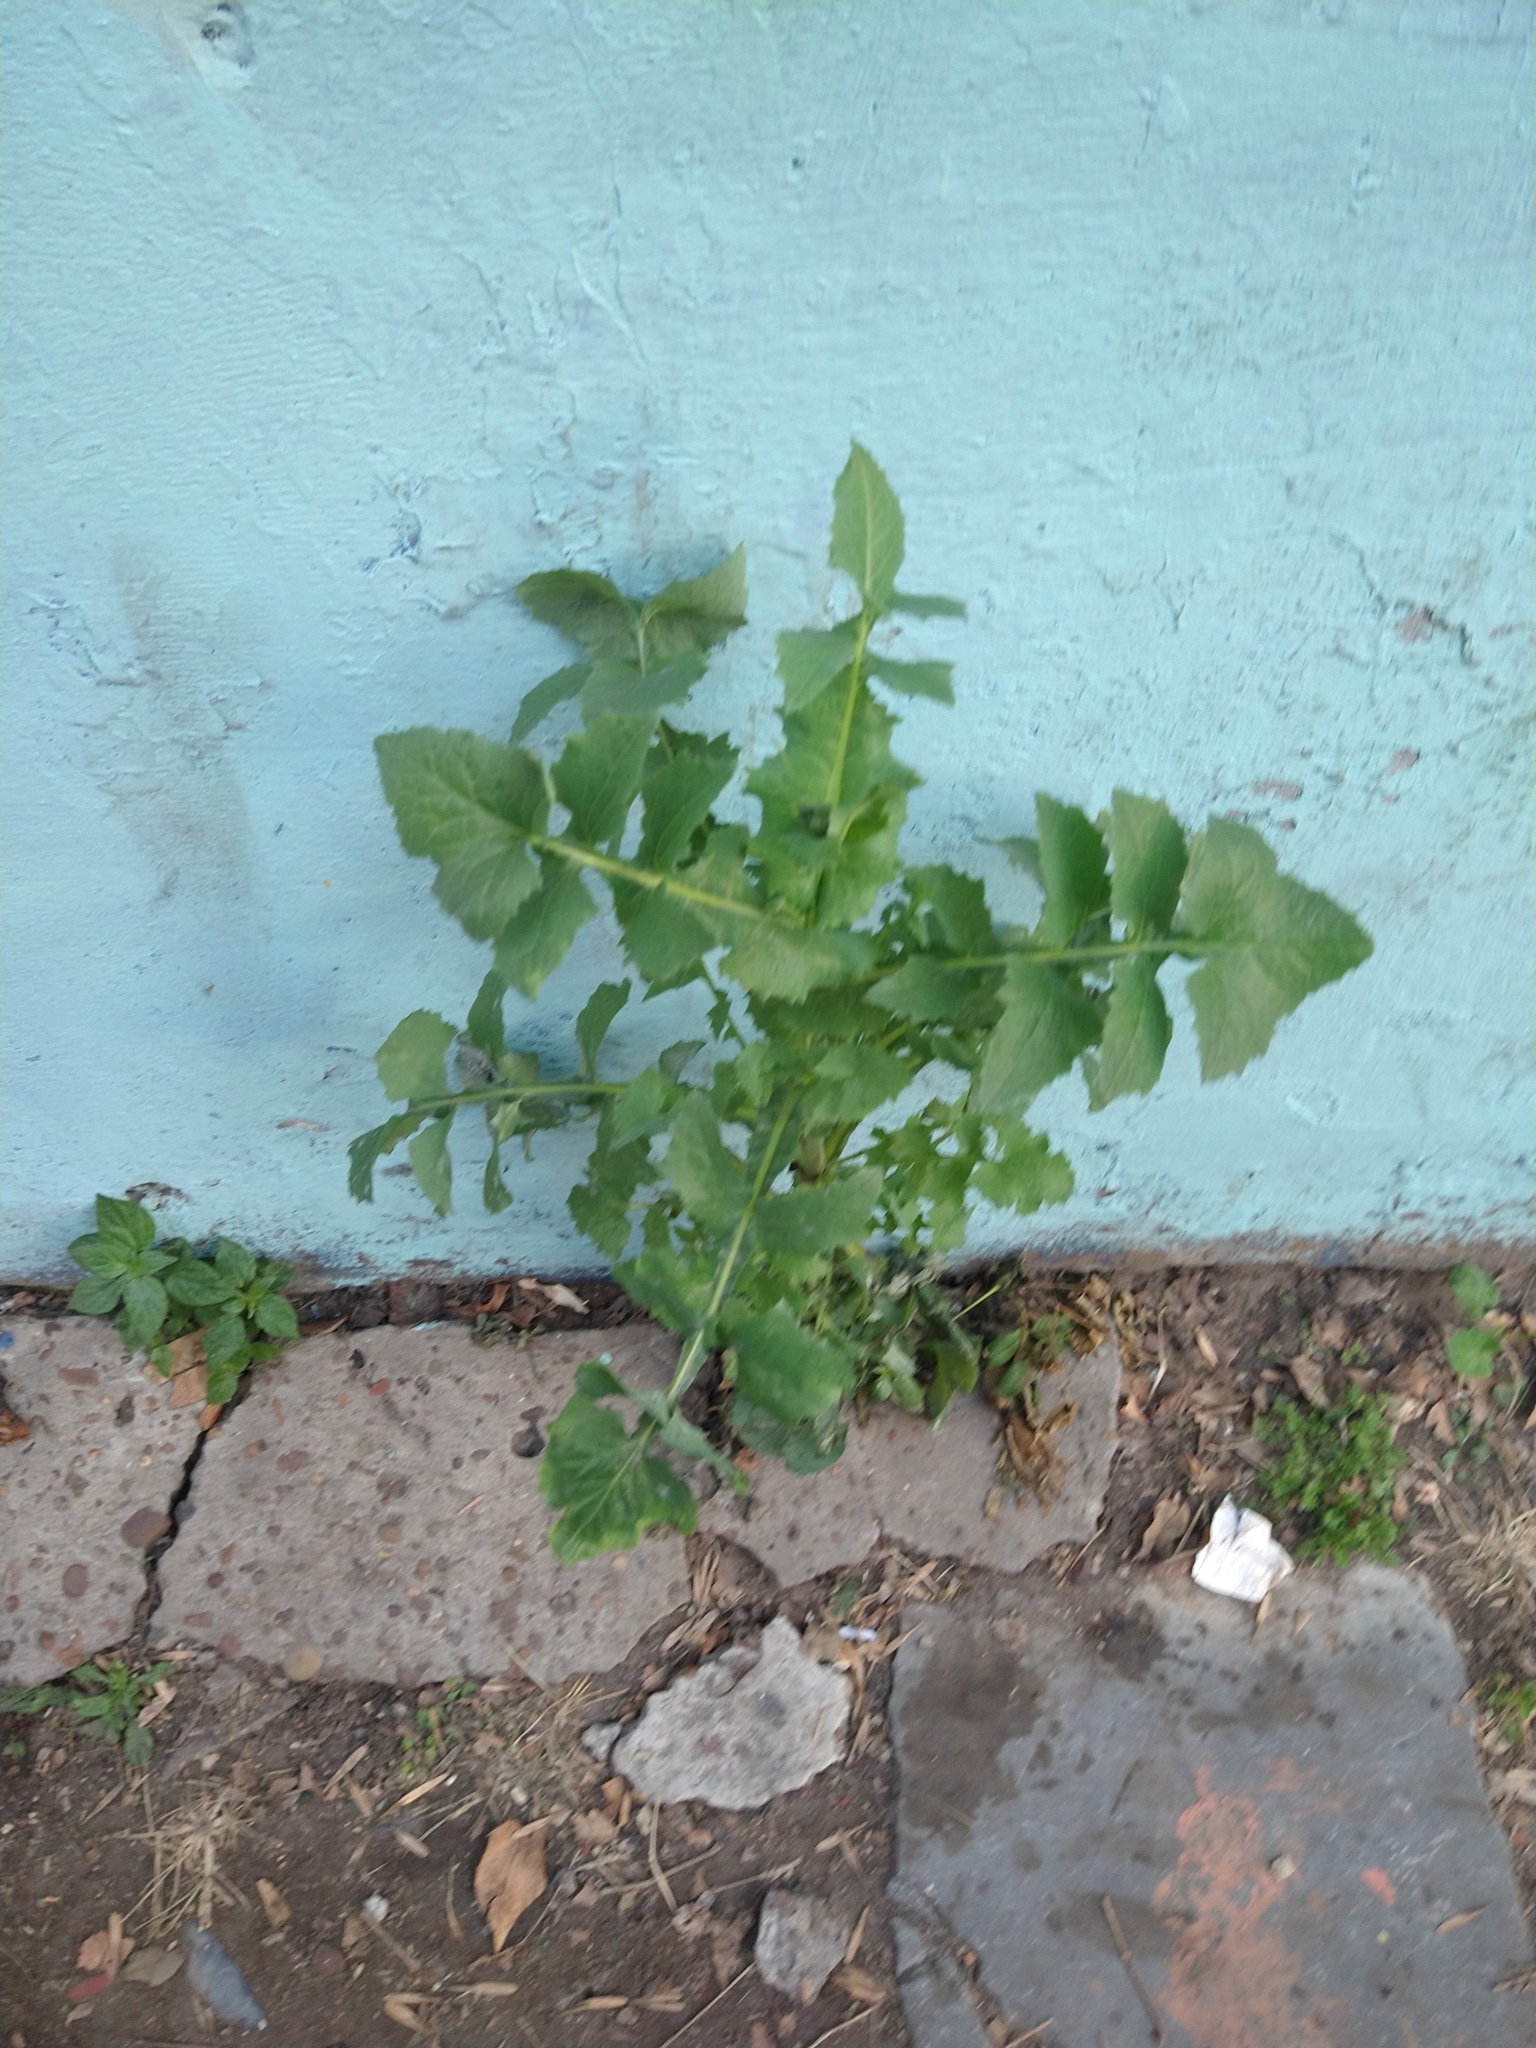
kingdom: Plantae
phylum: Tracheophyta
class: Magnoliopsida
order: Asterales
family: Asteraceae
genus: Sonchus
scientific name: Sonchus oleraceus
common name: Common sowthistle
